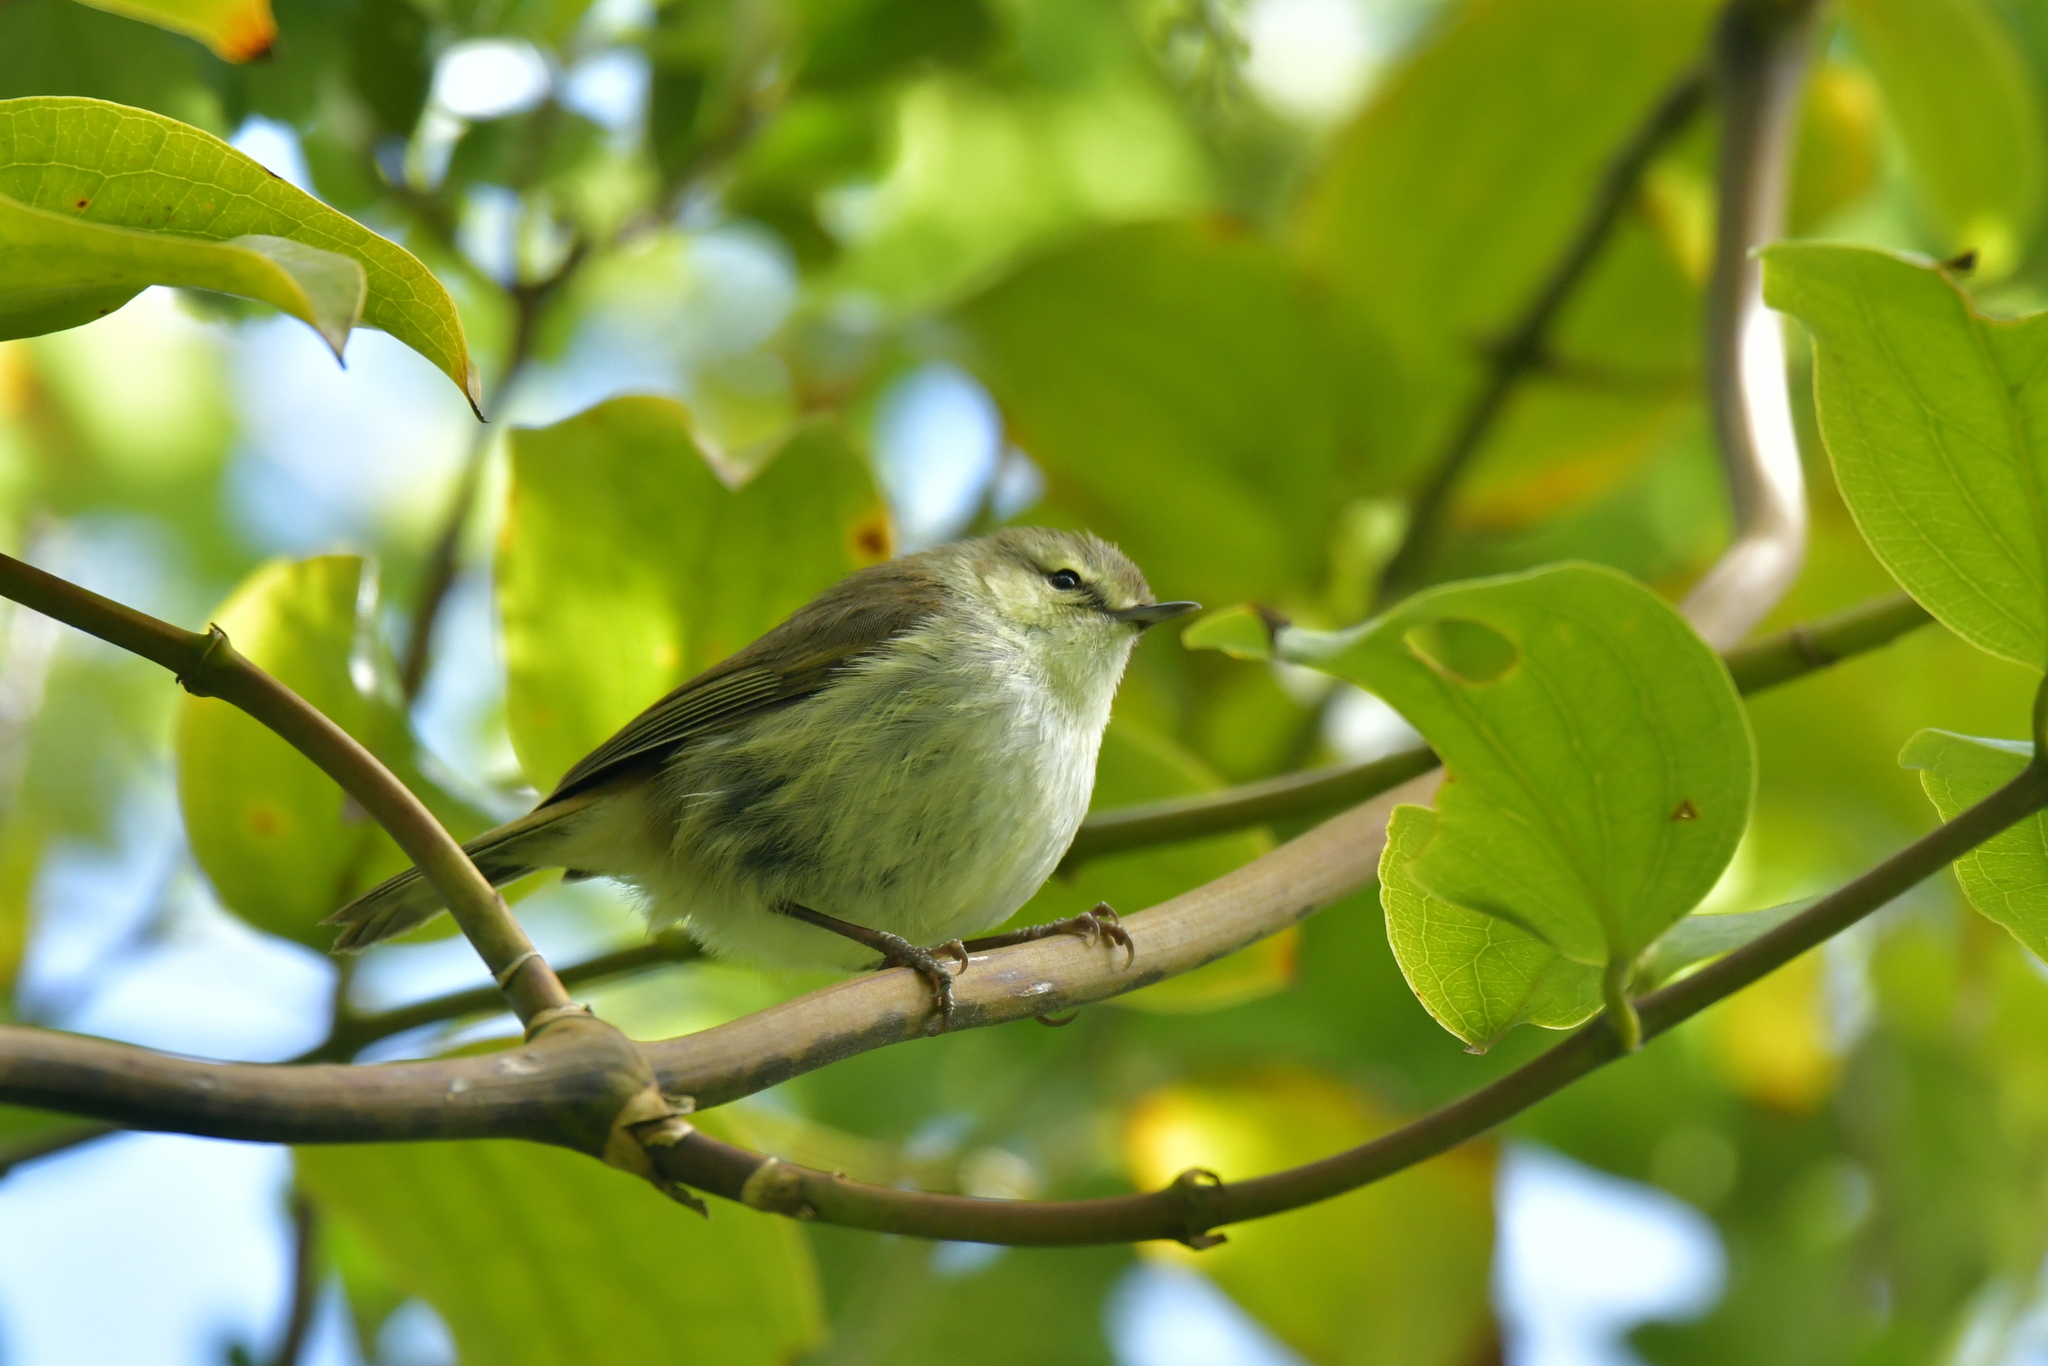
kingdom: Animalia
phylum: Chordata
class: Aves
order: Passeriformes
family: Acanthizidae
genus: Gerygone
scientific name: Gerygone albofrontata
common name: Chatham gerygone
